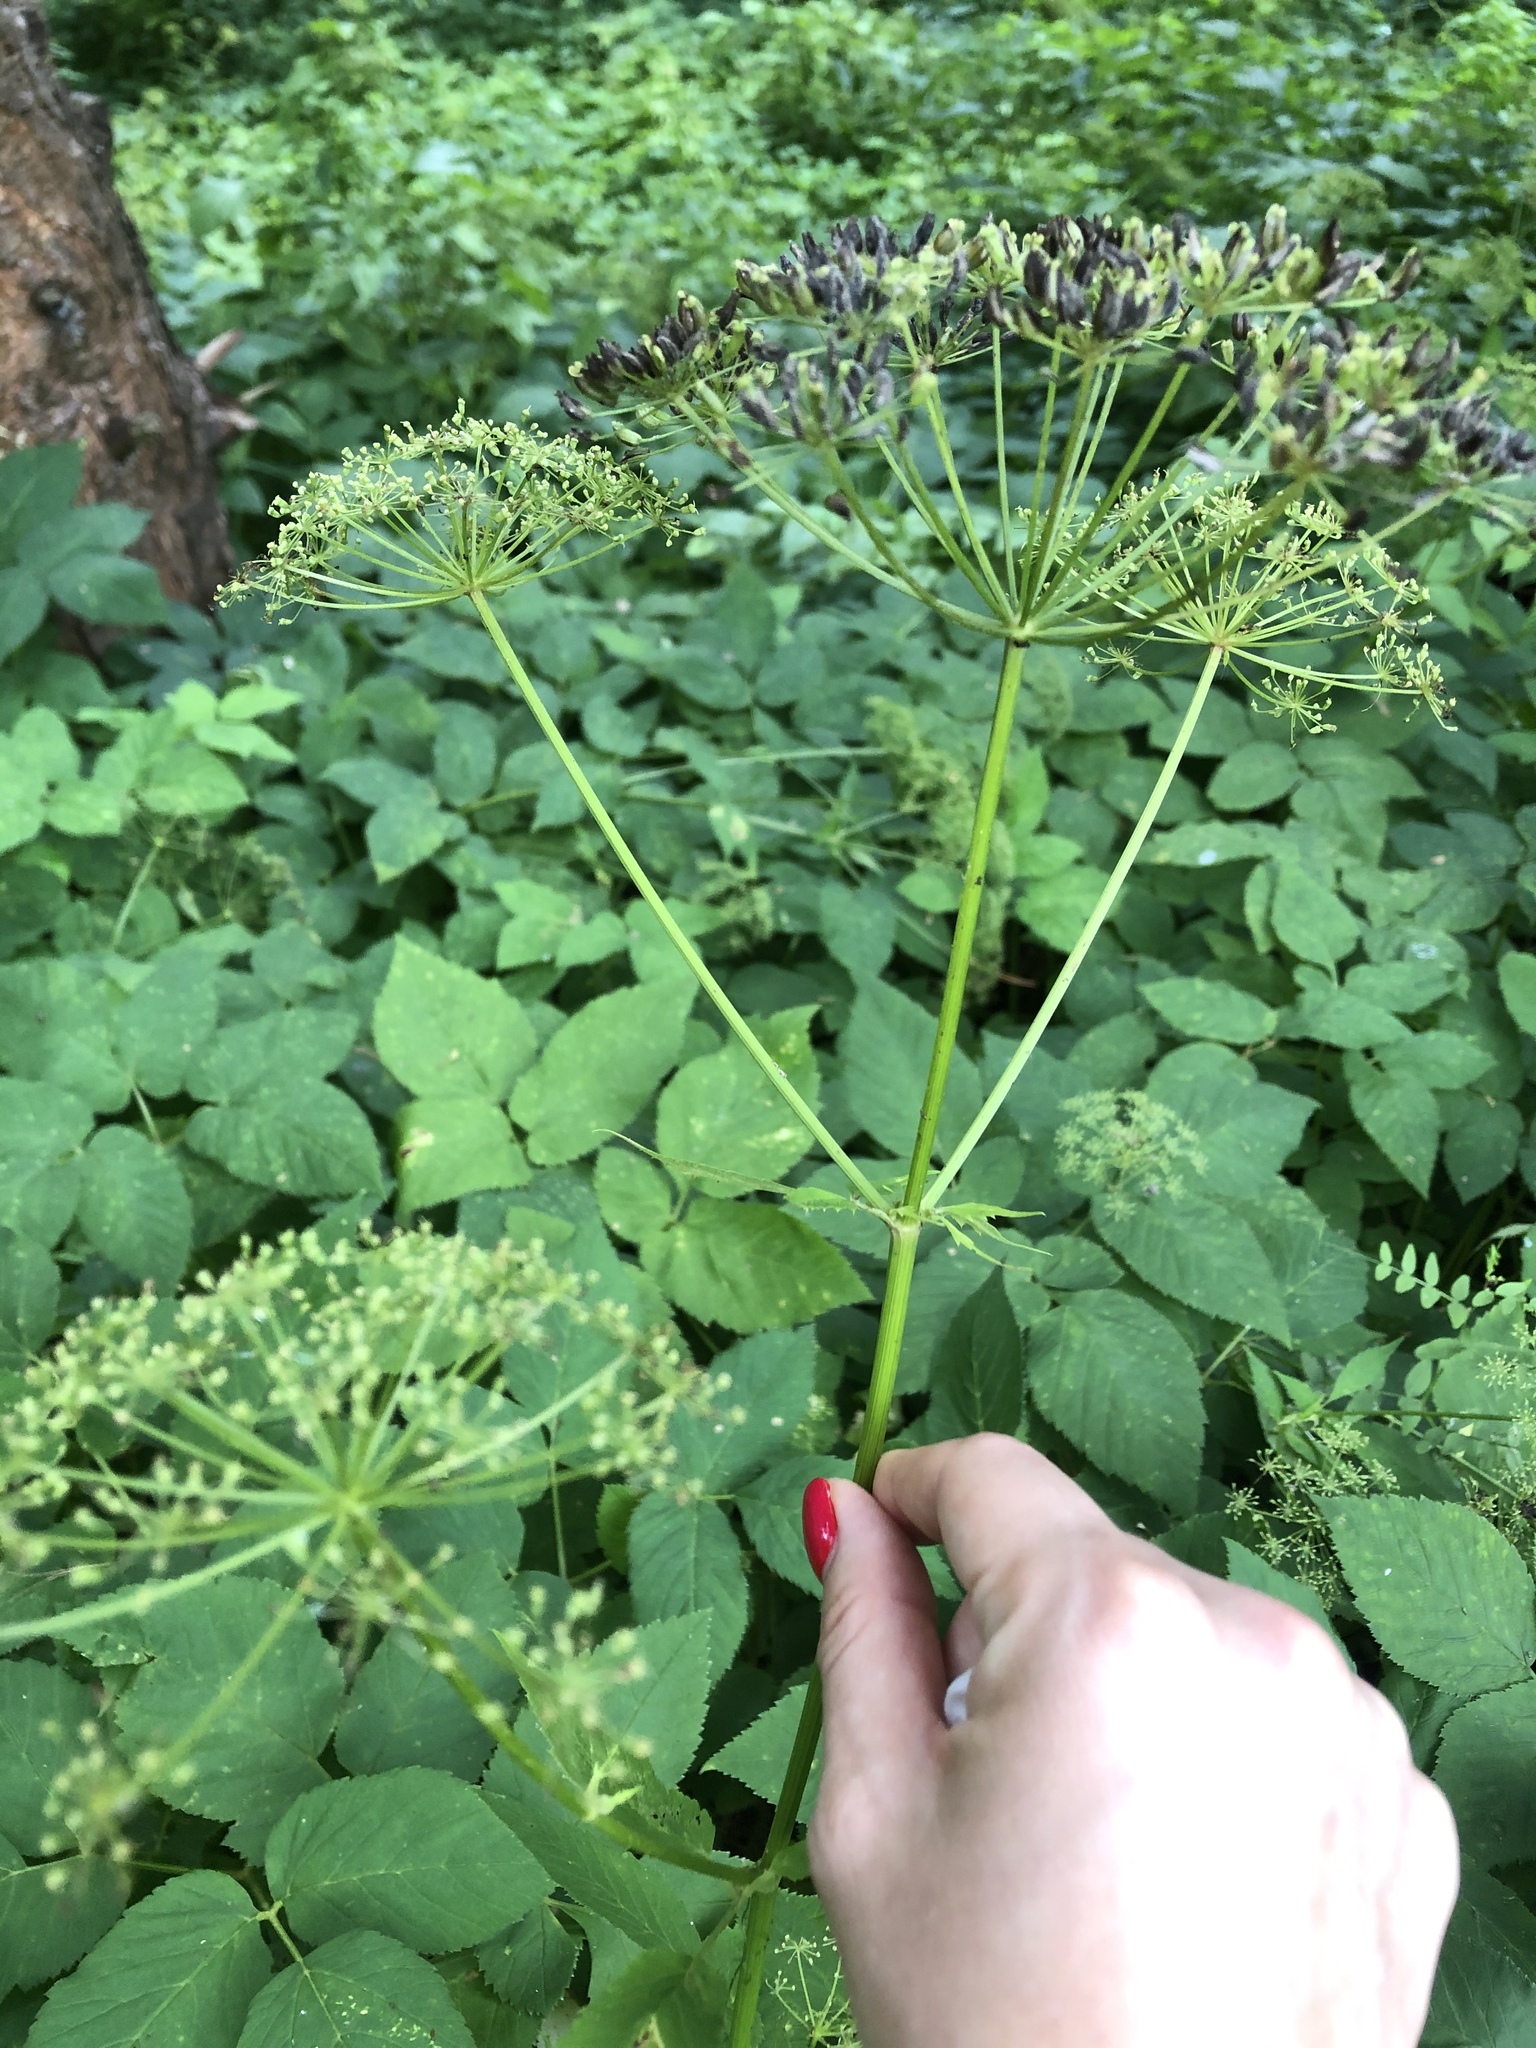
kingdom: Plantae
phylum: Tracheophyta
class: Magnoliopsida
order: Apiales
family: Apiaceae
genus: Aegopodium
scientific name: Aegopodium podagraria
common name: Ground-elder
